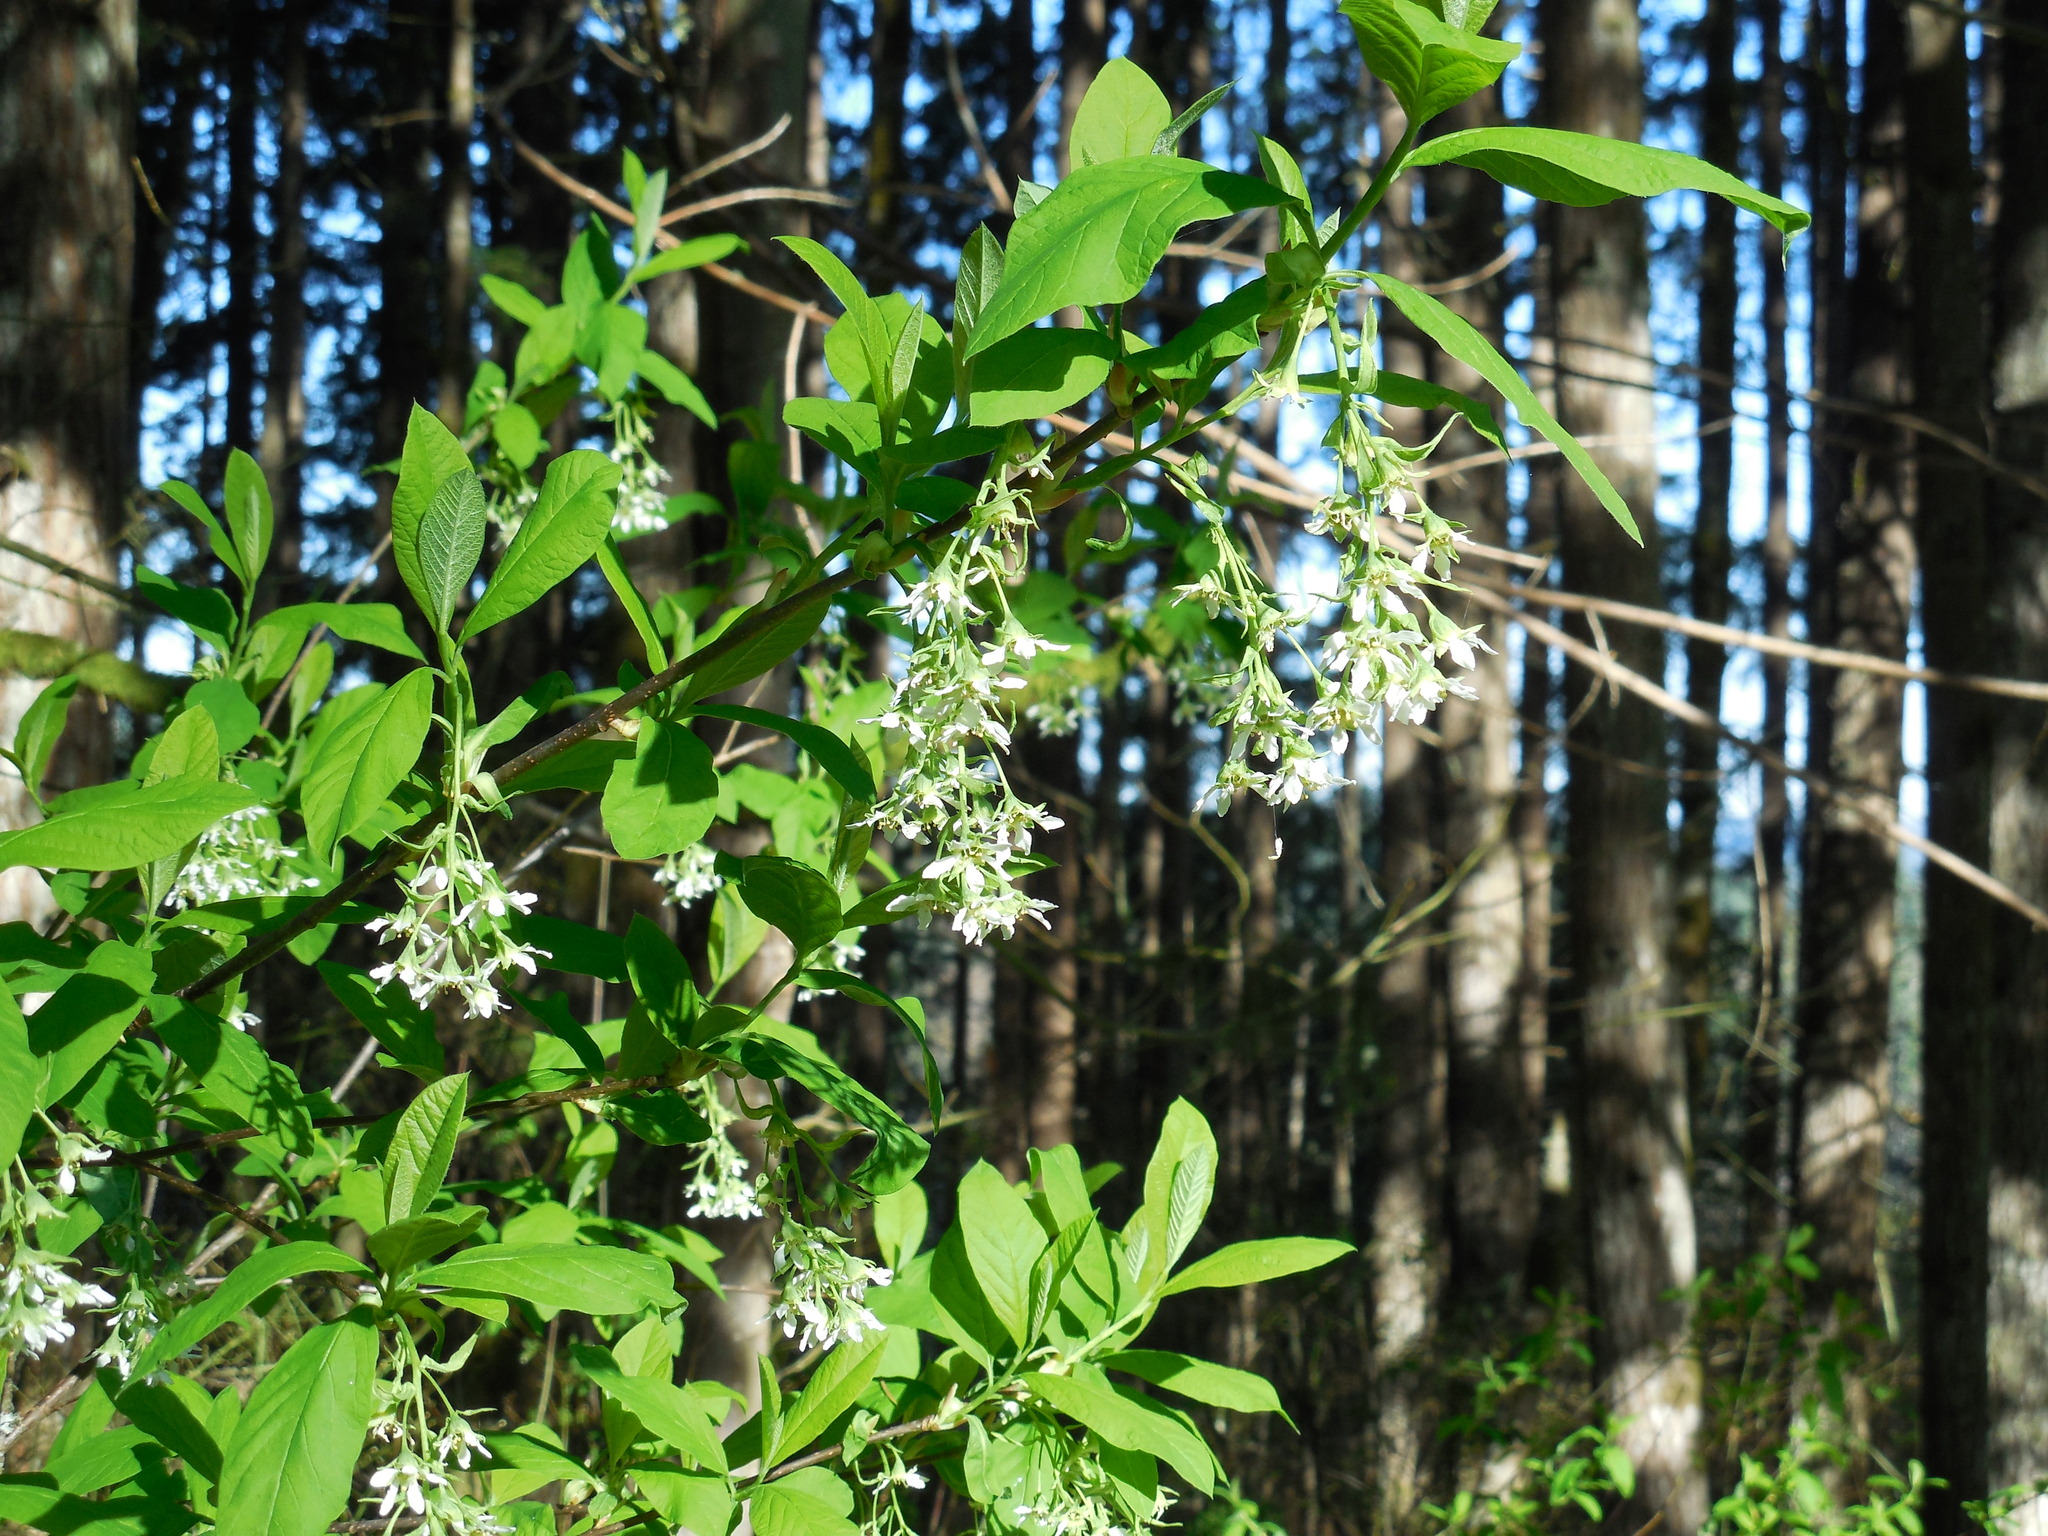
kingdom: Plantae
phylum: Tracheophyta
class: Magnoliopsida
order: Rosales
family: Rosaceae
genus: Oemleria
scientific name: Oemleria cerasiformis
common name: Osoberry
